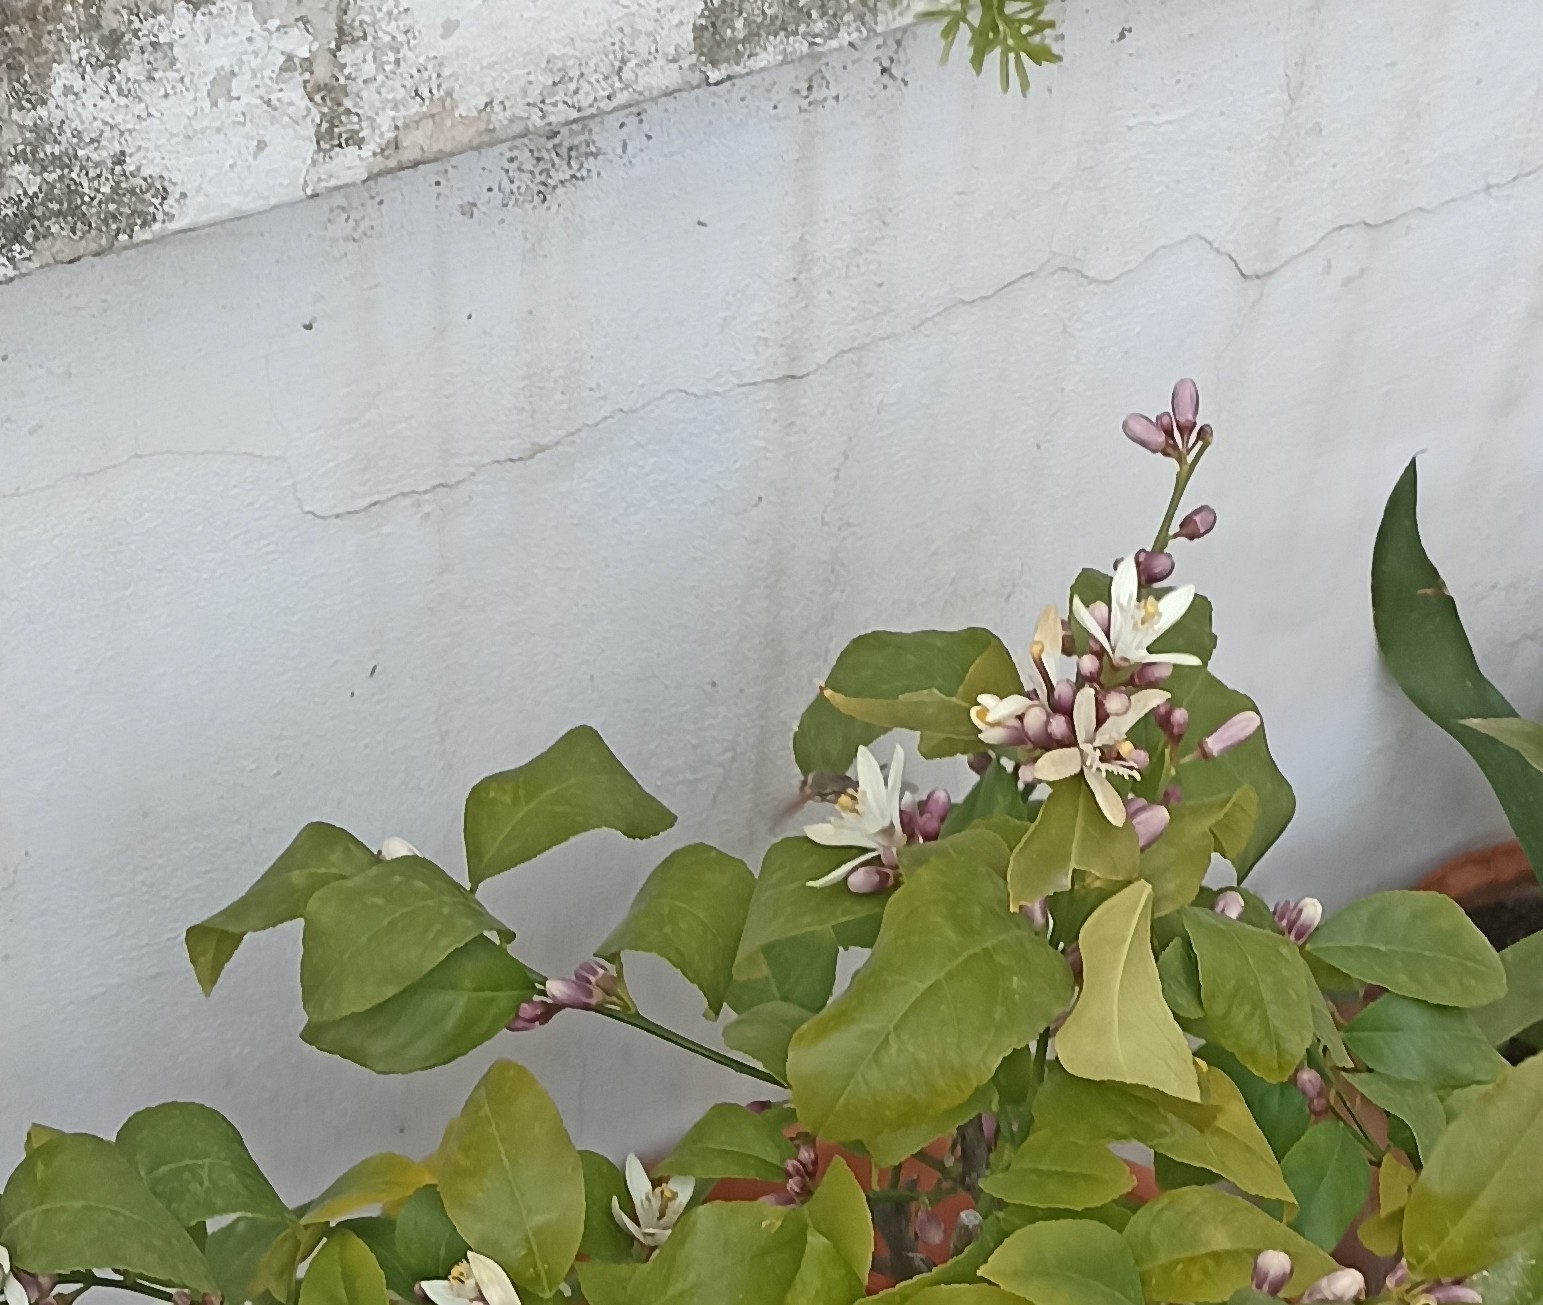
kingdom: Animalia
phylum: Arthropoda
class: Insecta
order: Lepidoptera
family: Sphingidae
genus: Macroglossum
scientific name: Macroglossum stellatarum
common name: Humming-bird hawk-moth
